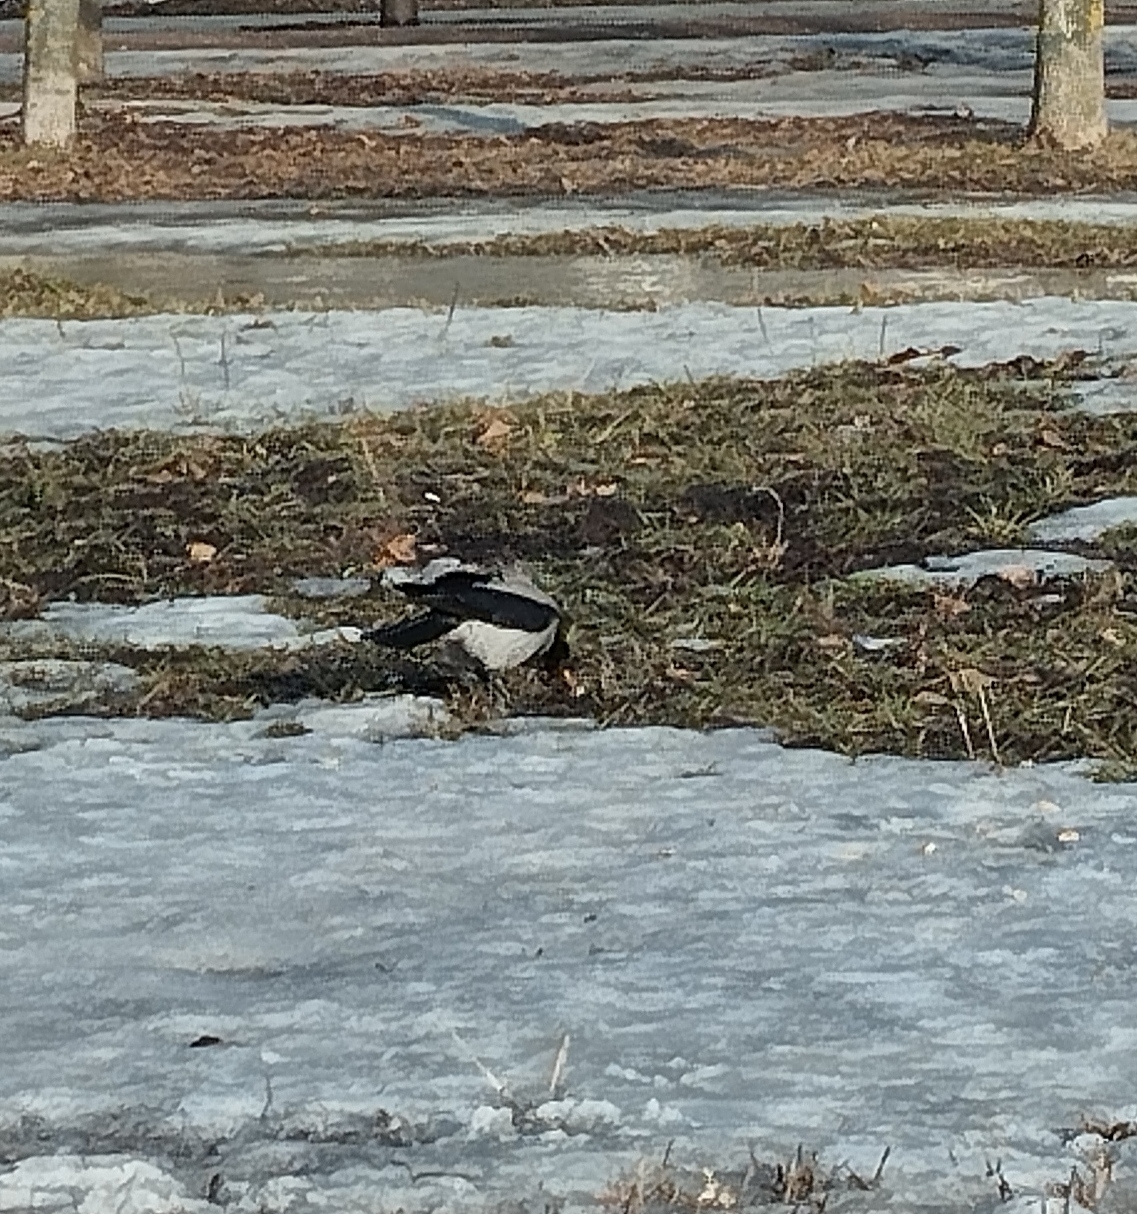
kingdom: Animalia
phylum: Chordata
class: Aves
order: Passeriformes
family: Corvidae
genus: Corvus
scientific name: Corvus cornix
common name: Hooded crow
